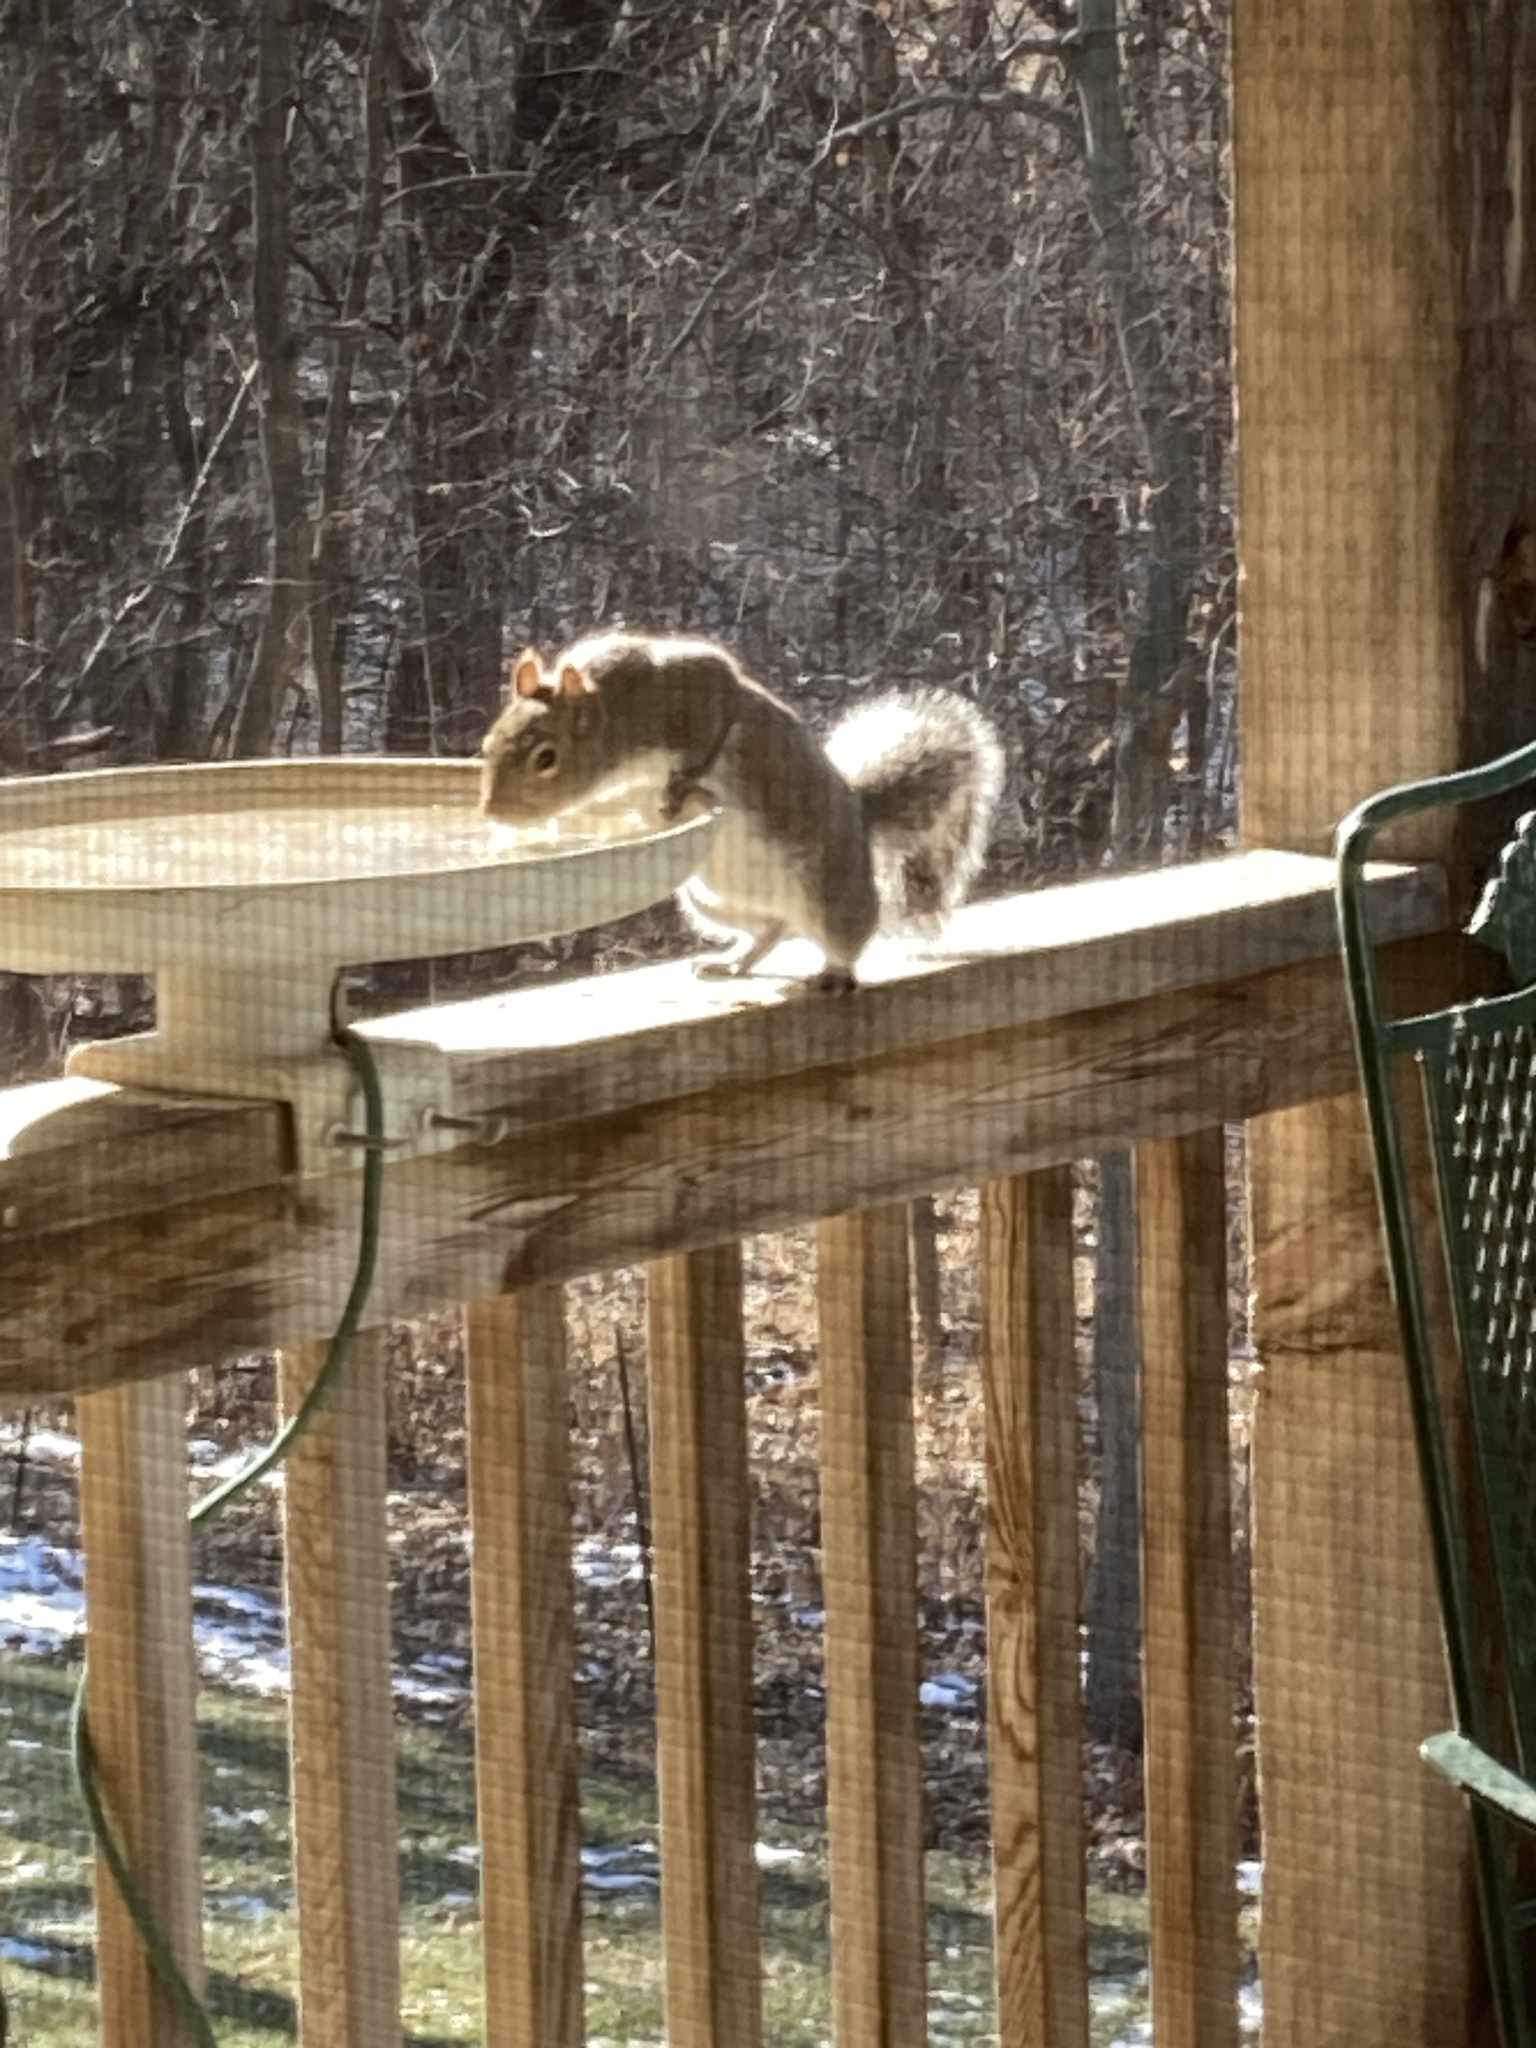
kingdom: Animalia
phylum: Chordata
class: Mammalia
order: Rodentia
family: Sciuridae
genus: Sciurus
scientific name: Sciurus carolinensis
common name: Eastern gray squirrel
